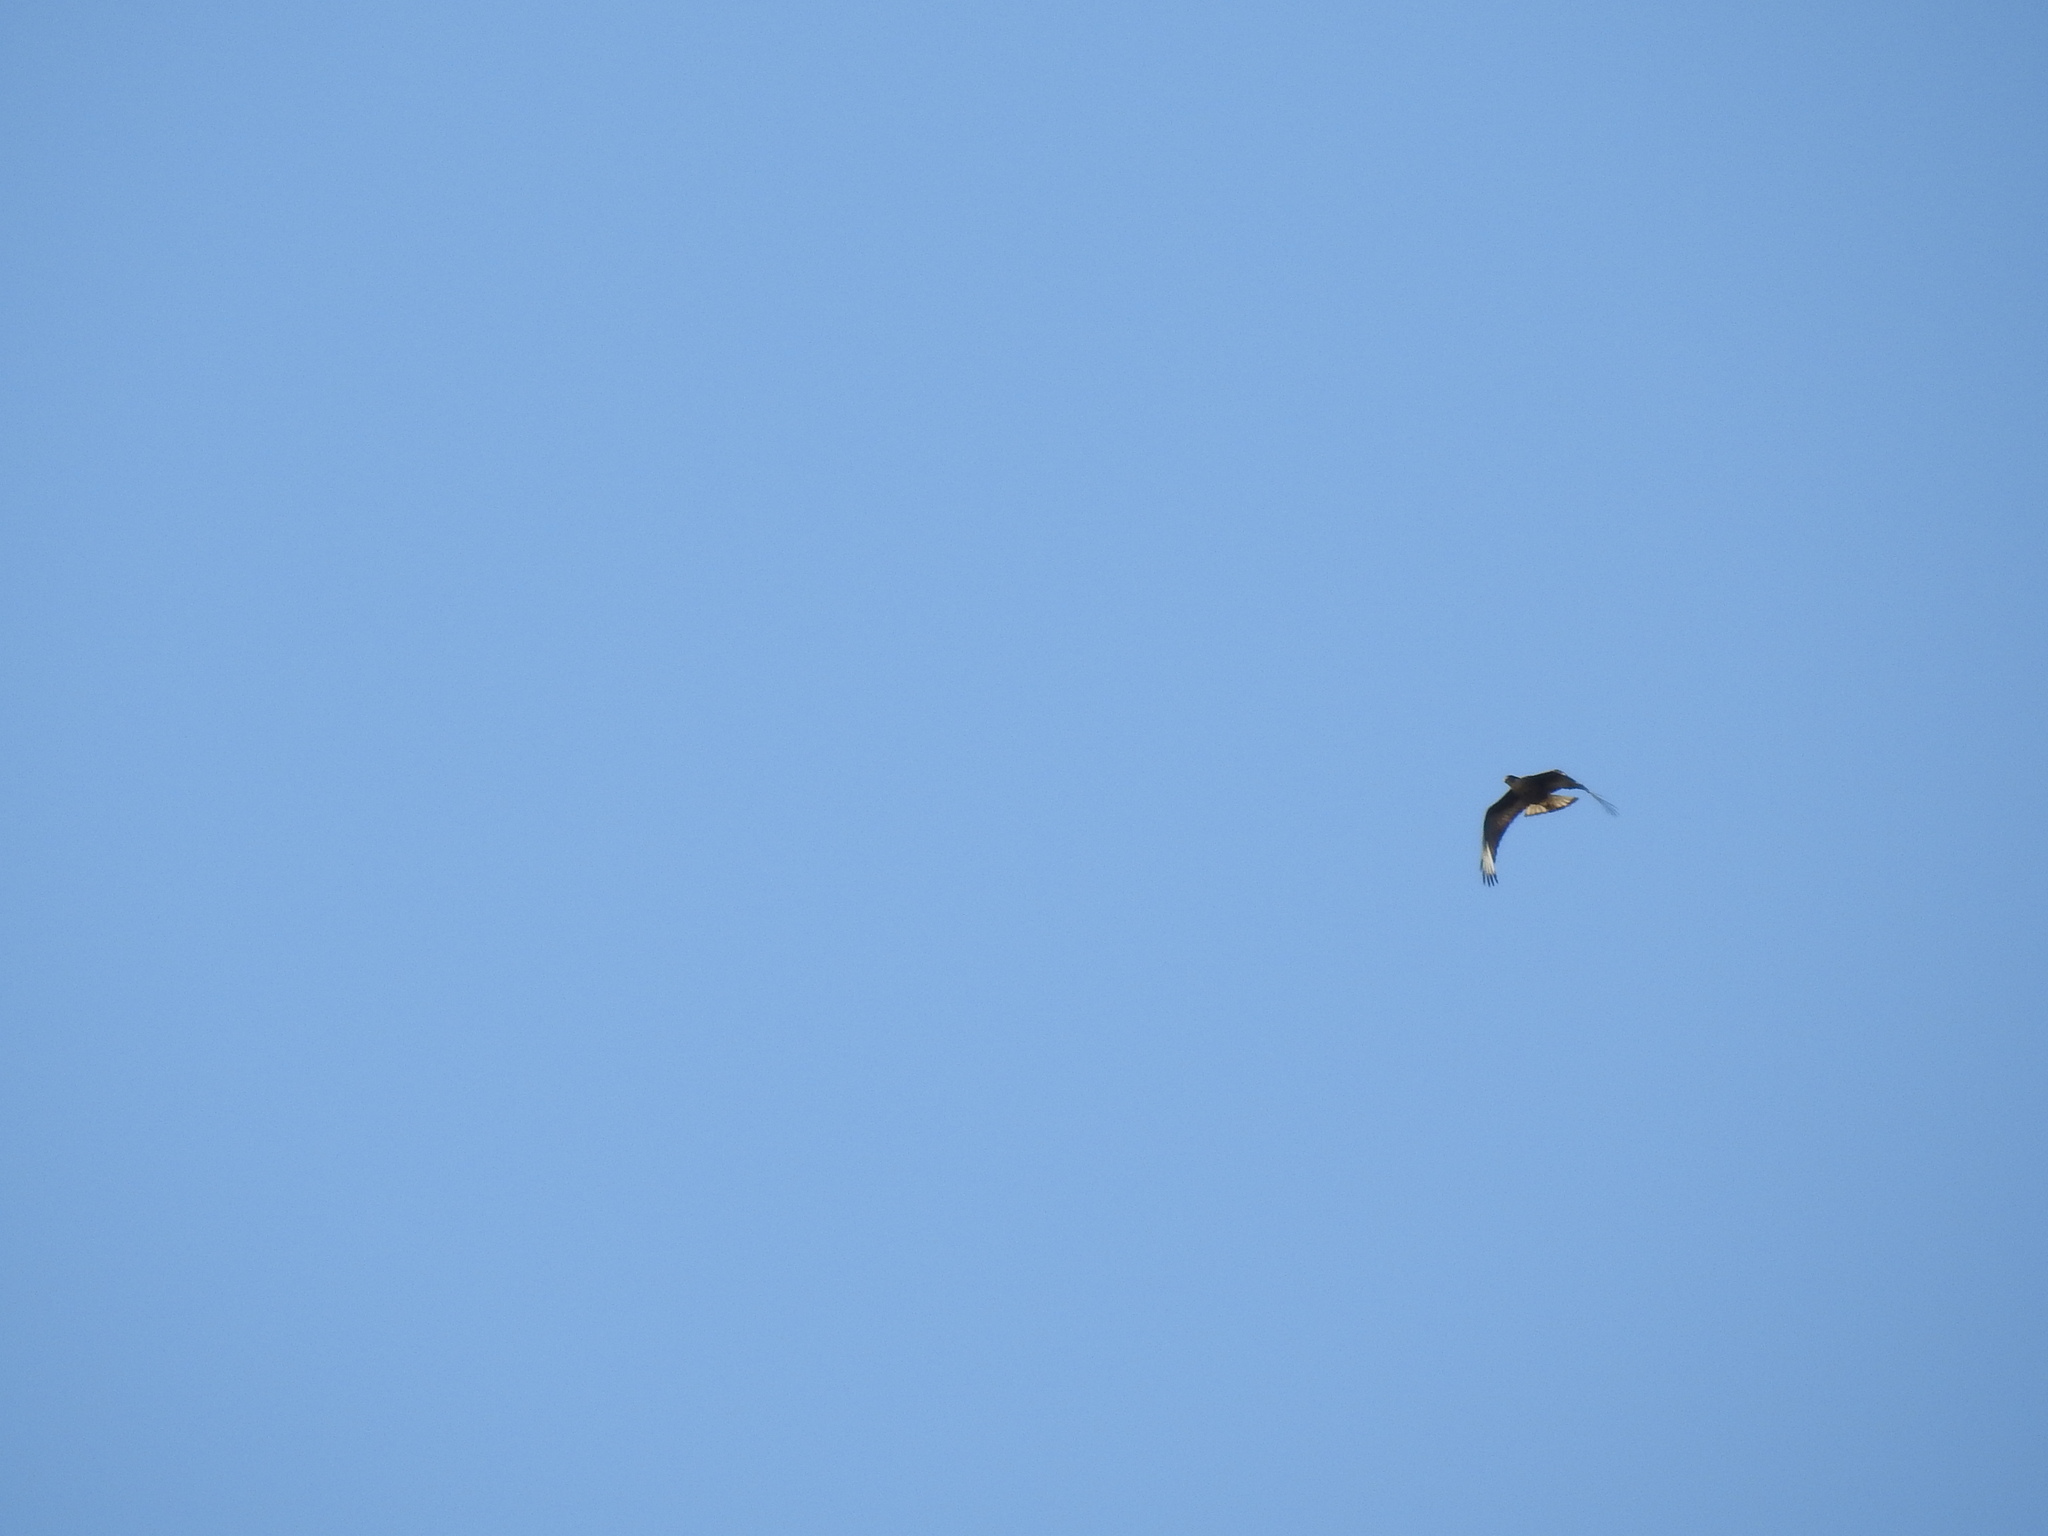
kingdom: Animalia
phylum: Chordata
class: Aves
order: Falconiformes
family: Falconidae
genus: Caracara
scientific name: Caracara plancus
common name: Southern caracara
